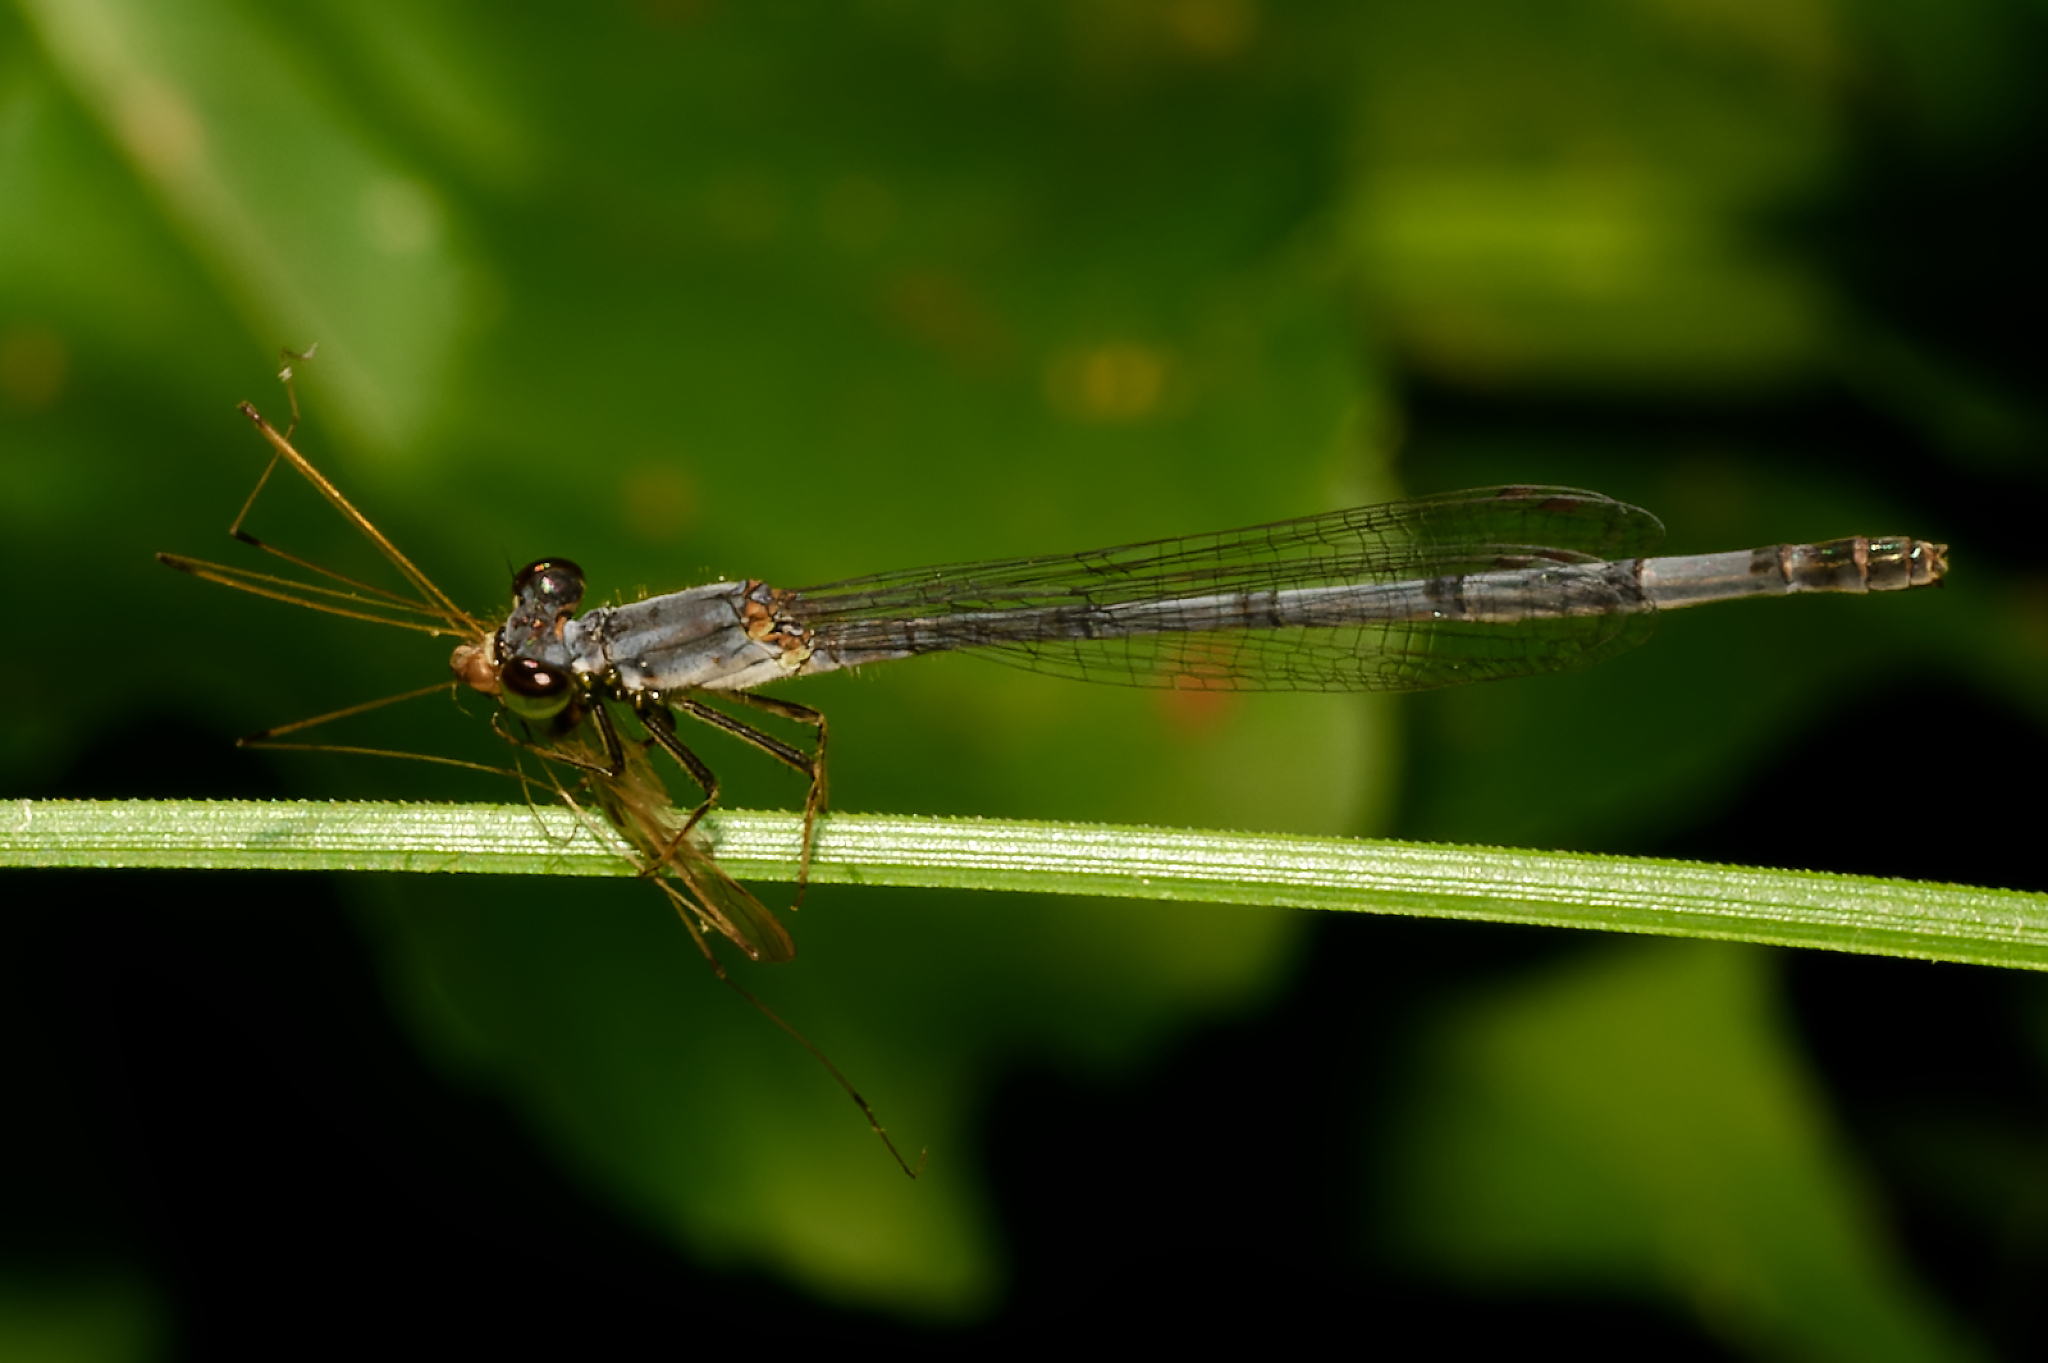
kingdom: Animalia
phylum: Arthropoda
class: Insecta
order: Odonata
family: Coenagrionidae
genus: Ischnura
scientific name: Ischnura posita
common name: Fragile forktail
